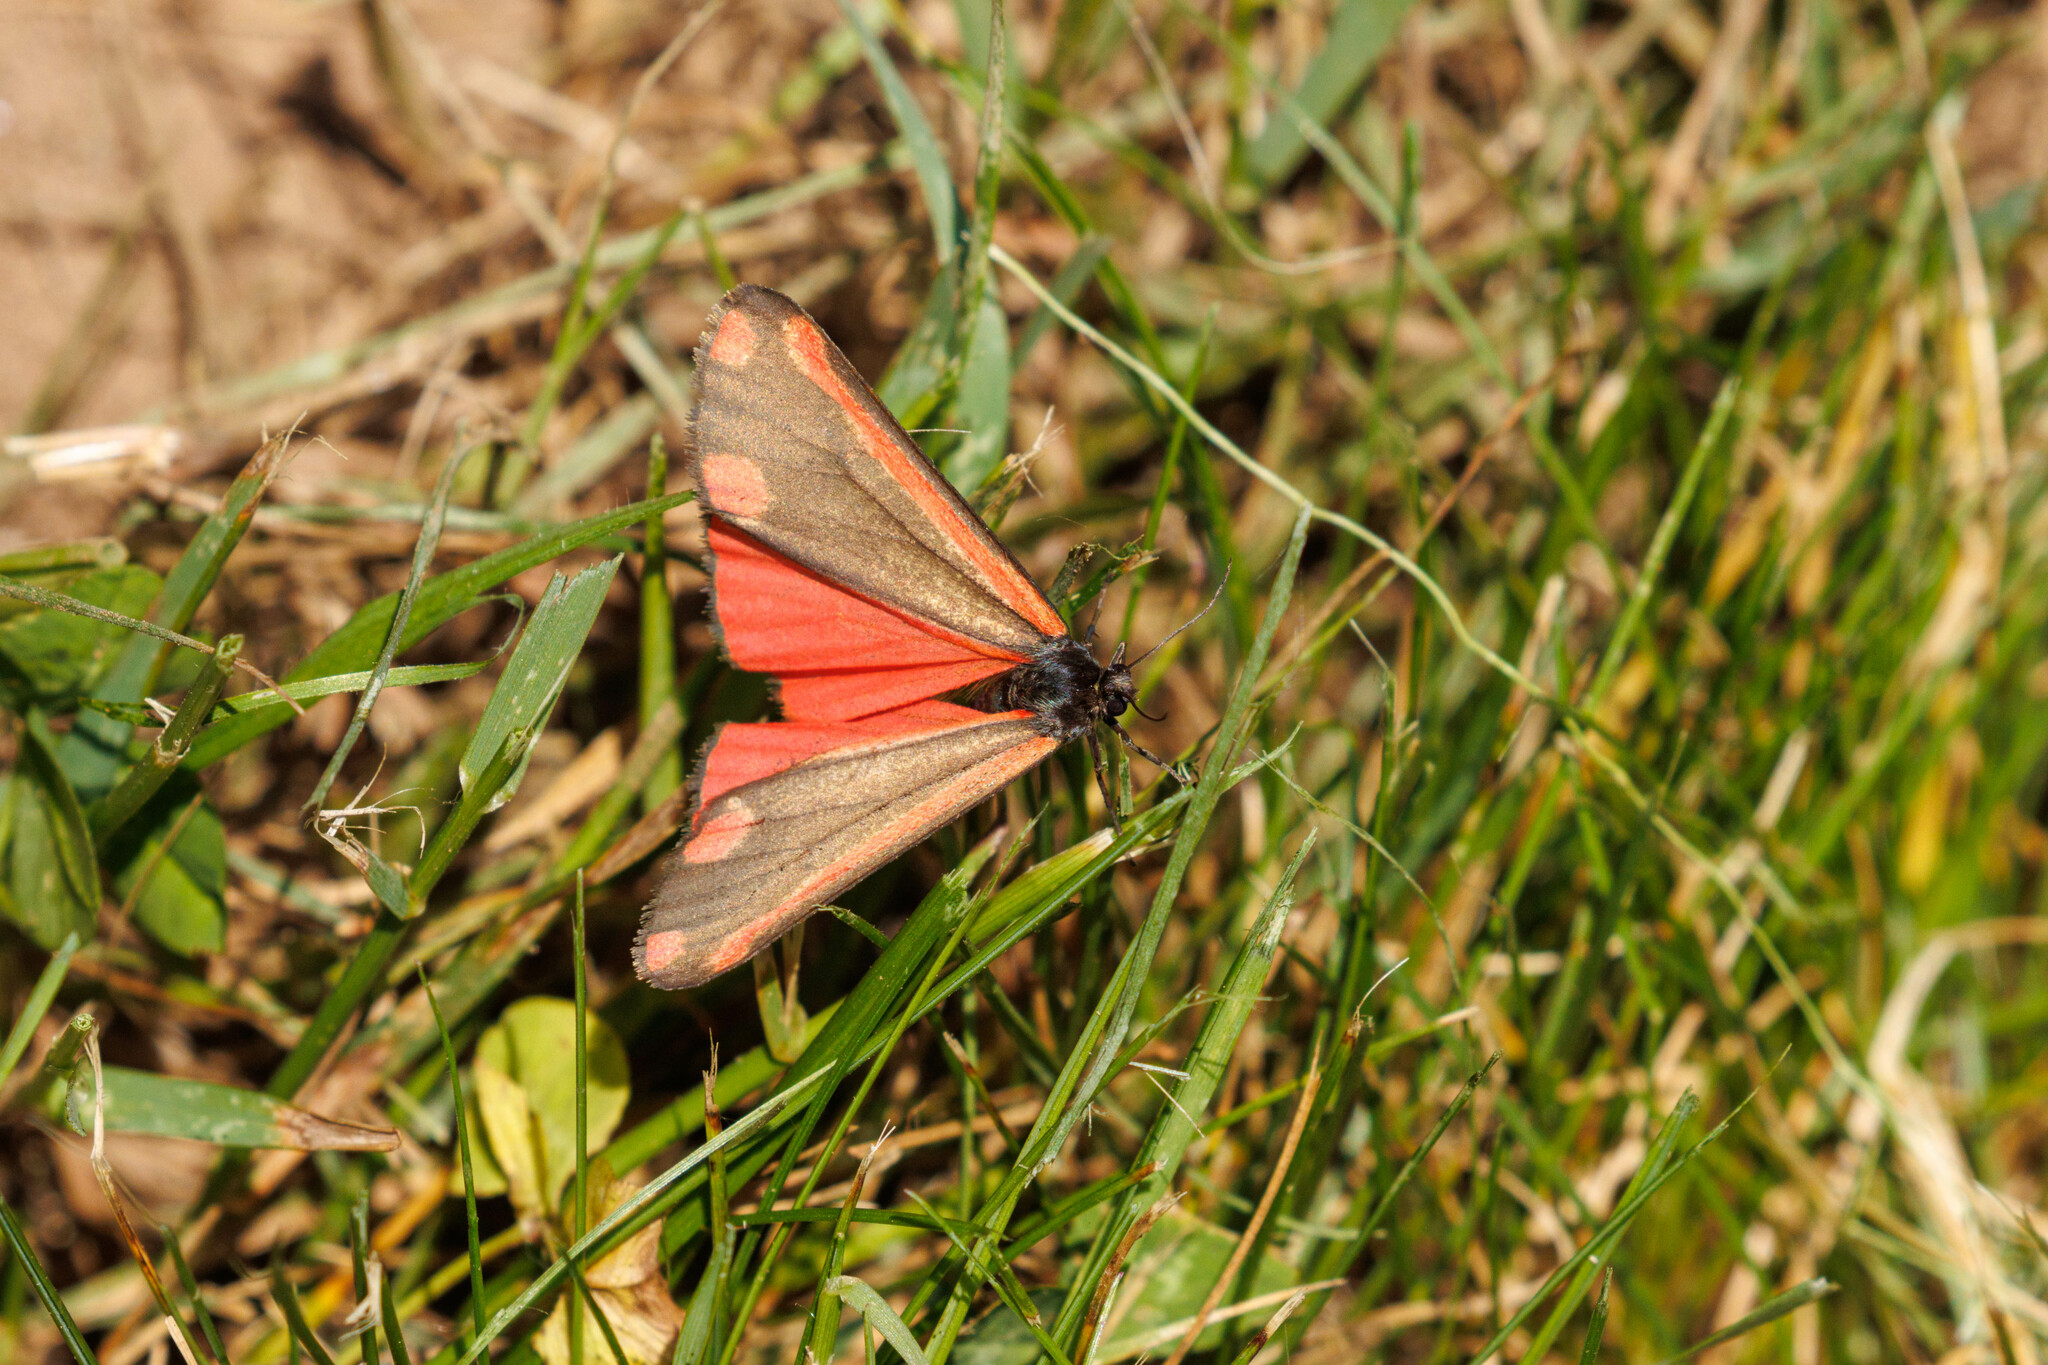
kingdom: Animalia
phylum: Arthropoda
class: Insecta
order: Lepidoptera
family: Erebidae
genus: Tyria
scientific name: Tyria jacobaeae
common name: Cinnabar
